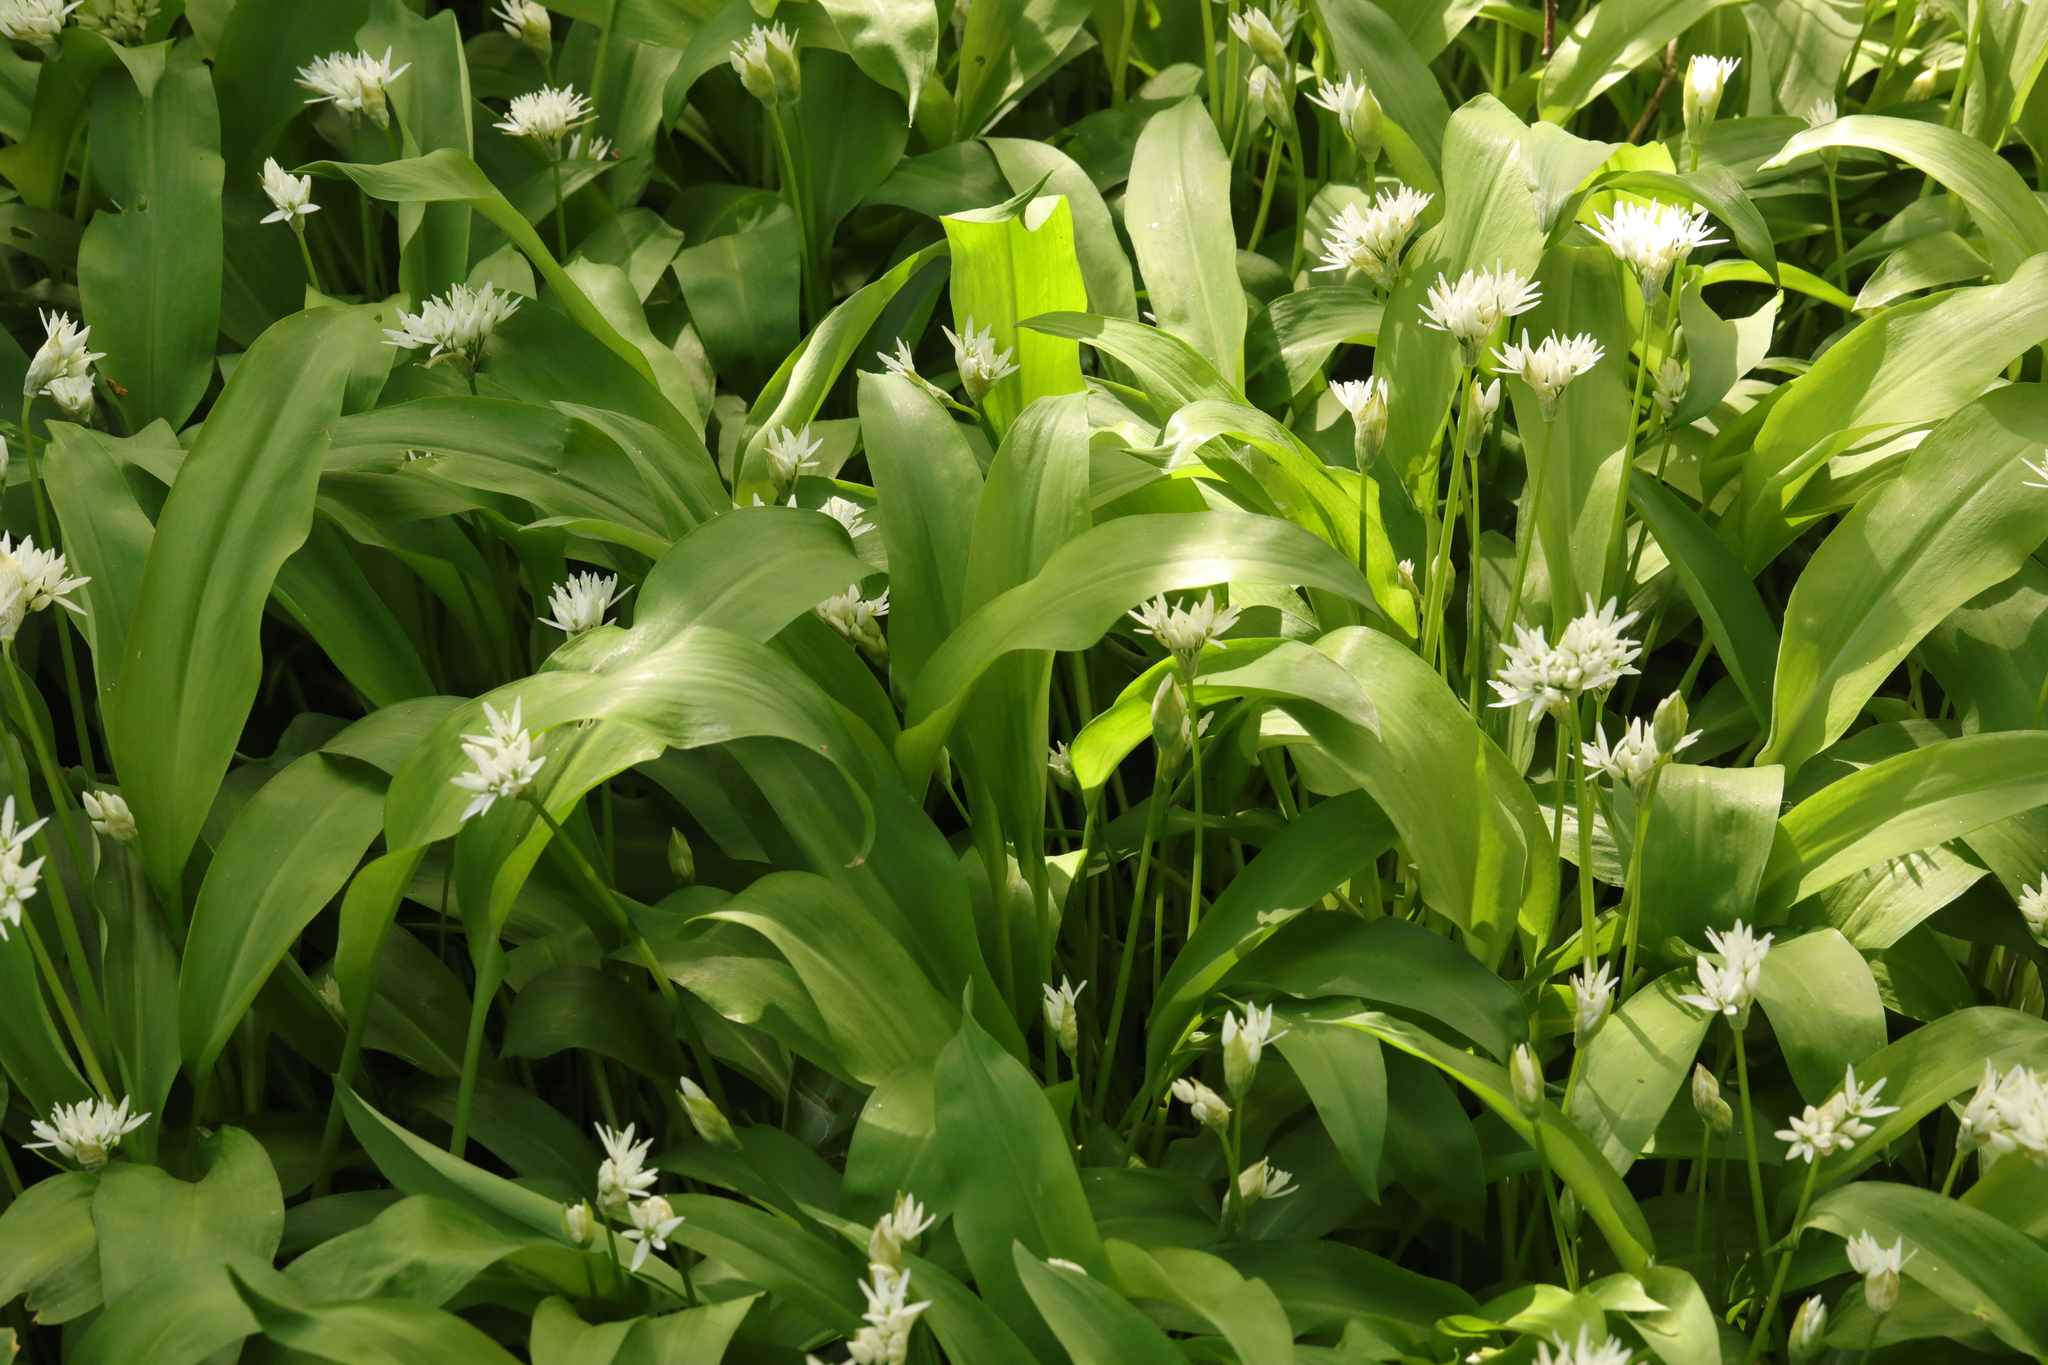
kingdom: Plantae
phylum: Tracheophyta
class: Liliopsida
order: Asparagales
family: Amaryllidaceae
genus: Allium
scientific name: Allium ursinum
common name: Ramsons
